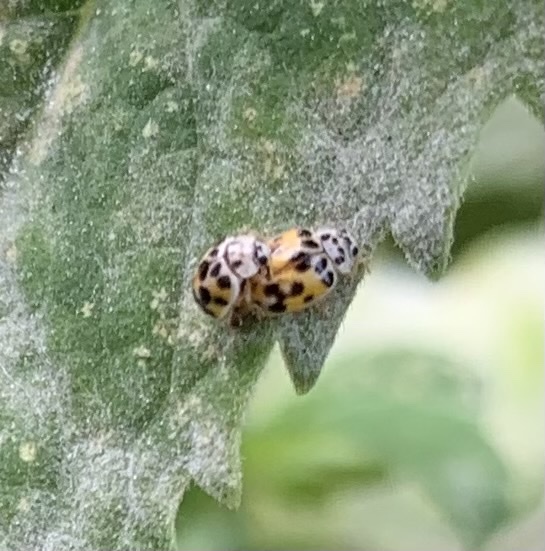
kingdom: Animalia
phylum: Arthropoda
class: Insecta
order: Coleoptera
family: Coccinellidae
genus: Psyllobora
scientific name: Psyllobora vigintimaculata
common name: Ladybird beetle
